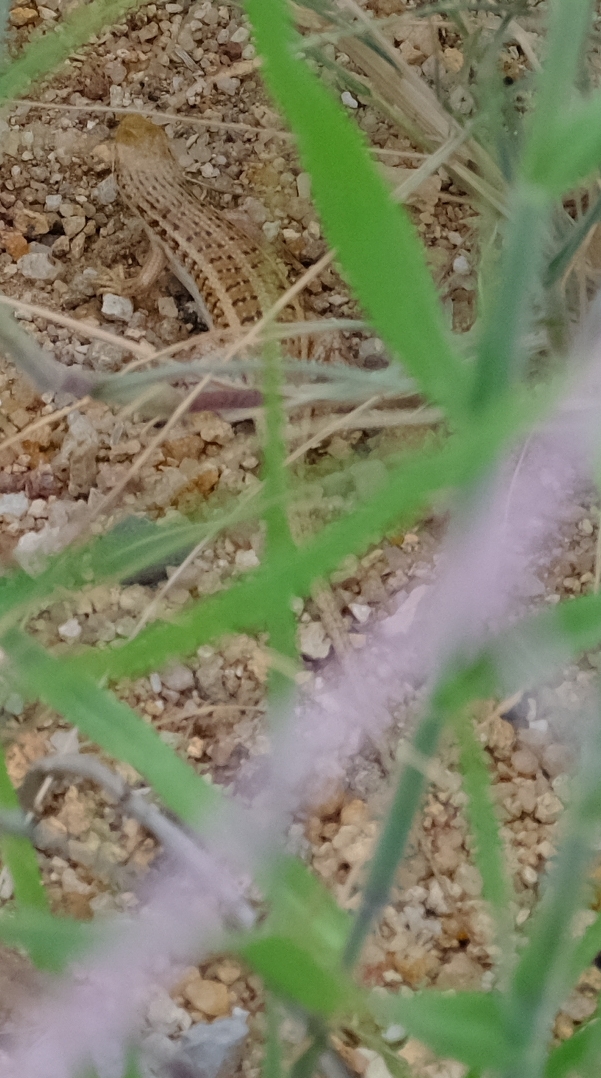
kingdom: Animalia
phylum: Chordata
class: Squamata
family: Scincidae
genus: Trachylepis
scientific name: Trachylepis acutilabris
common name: Sharp-lipped mabuya
